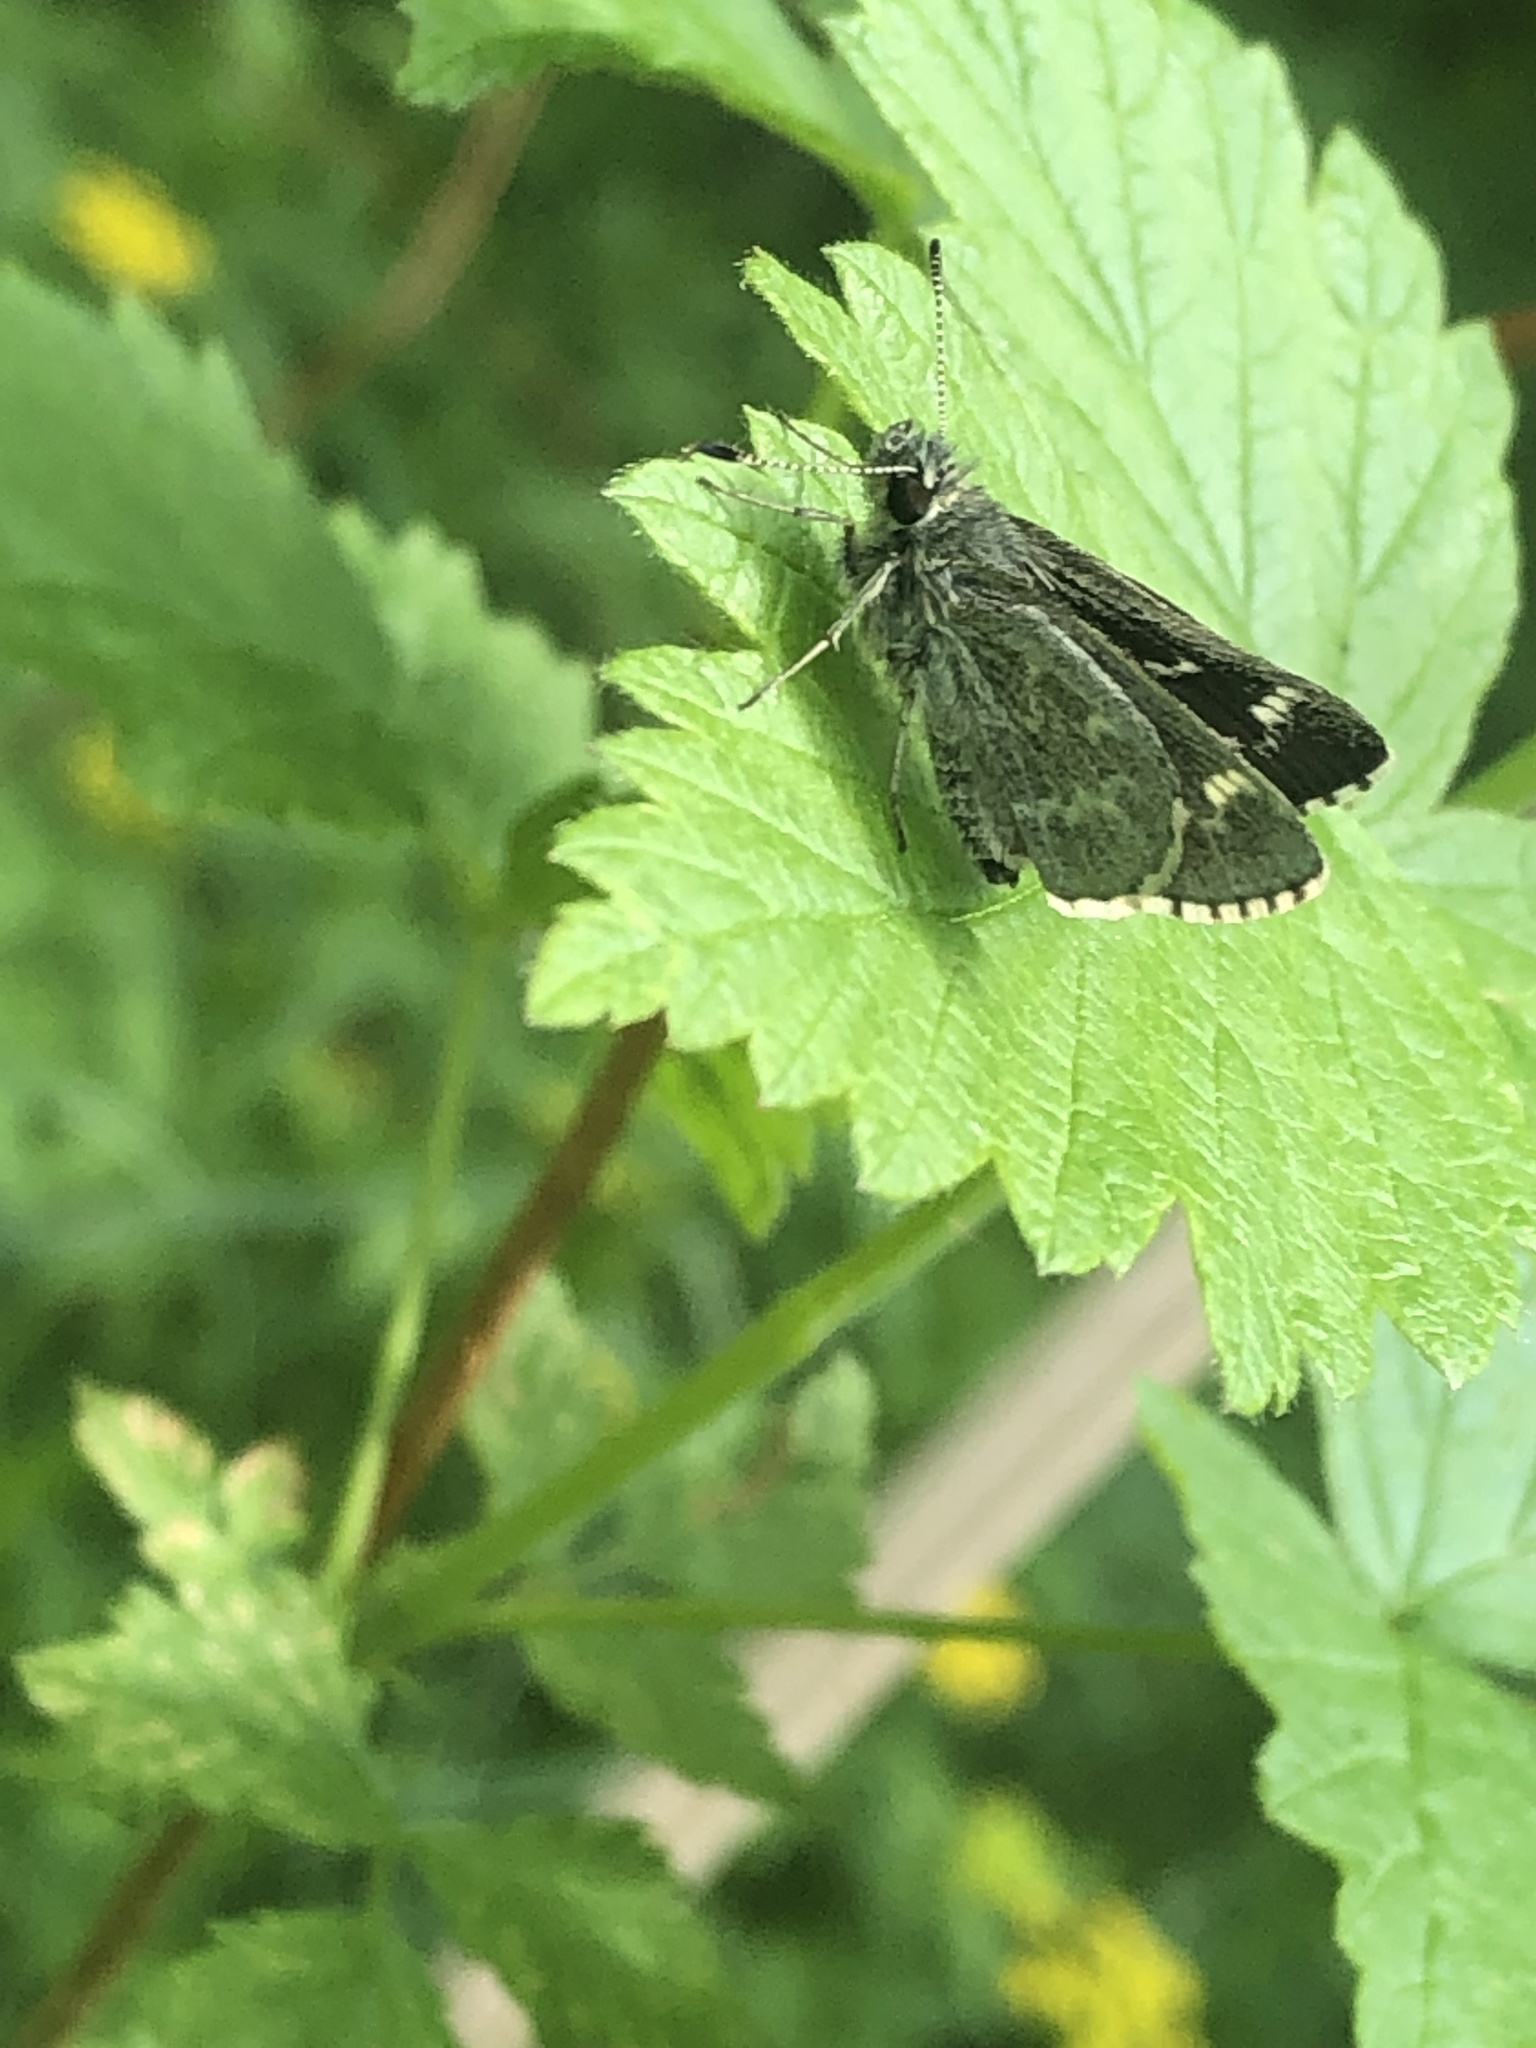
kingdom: Animalia
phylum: Arthropoda
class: Insecta
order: Lepidoptera
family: Hesperiidae
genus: Mastor
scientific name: Mastor hegon
